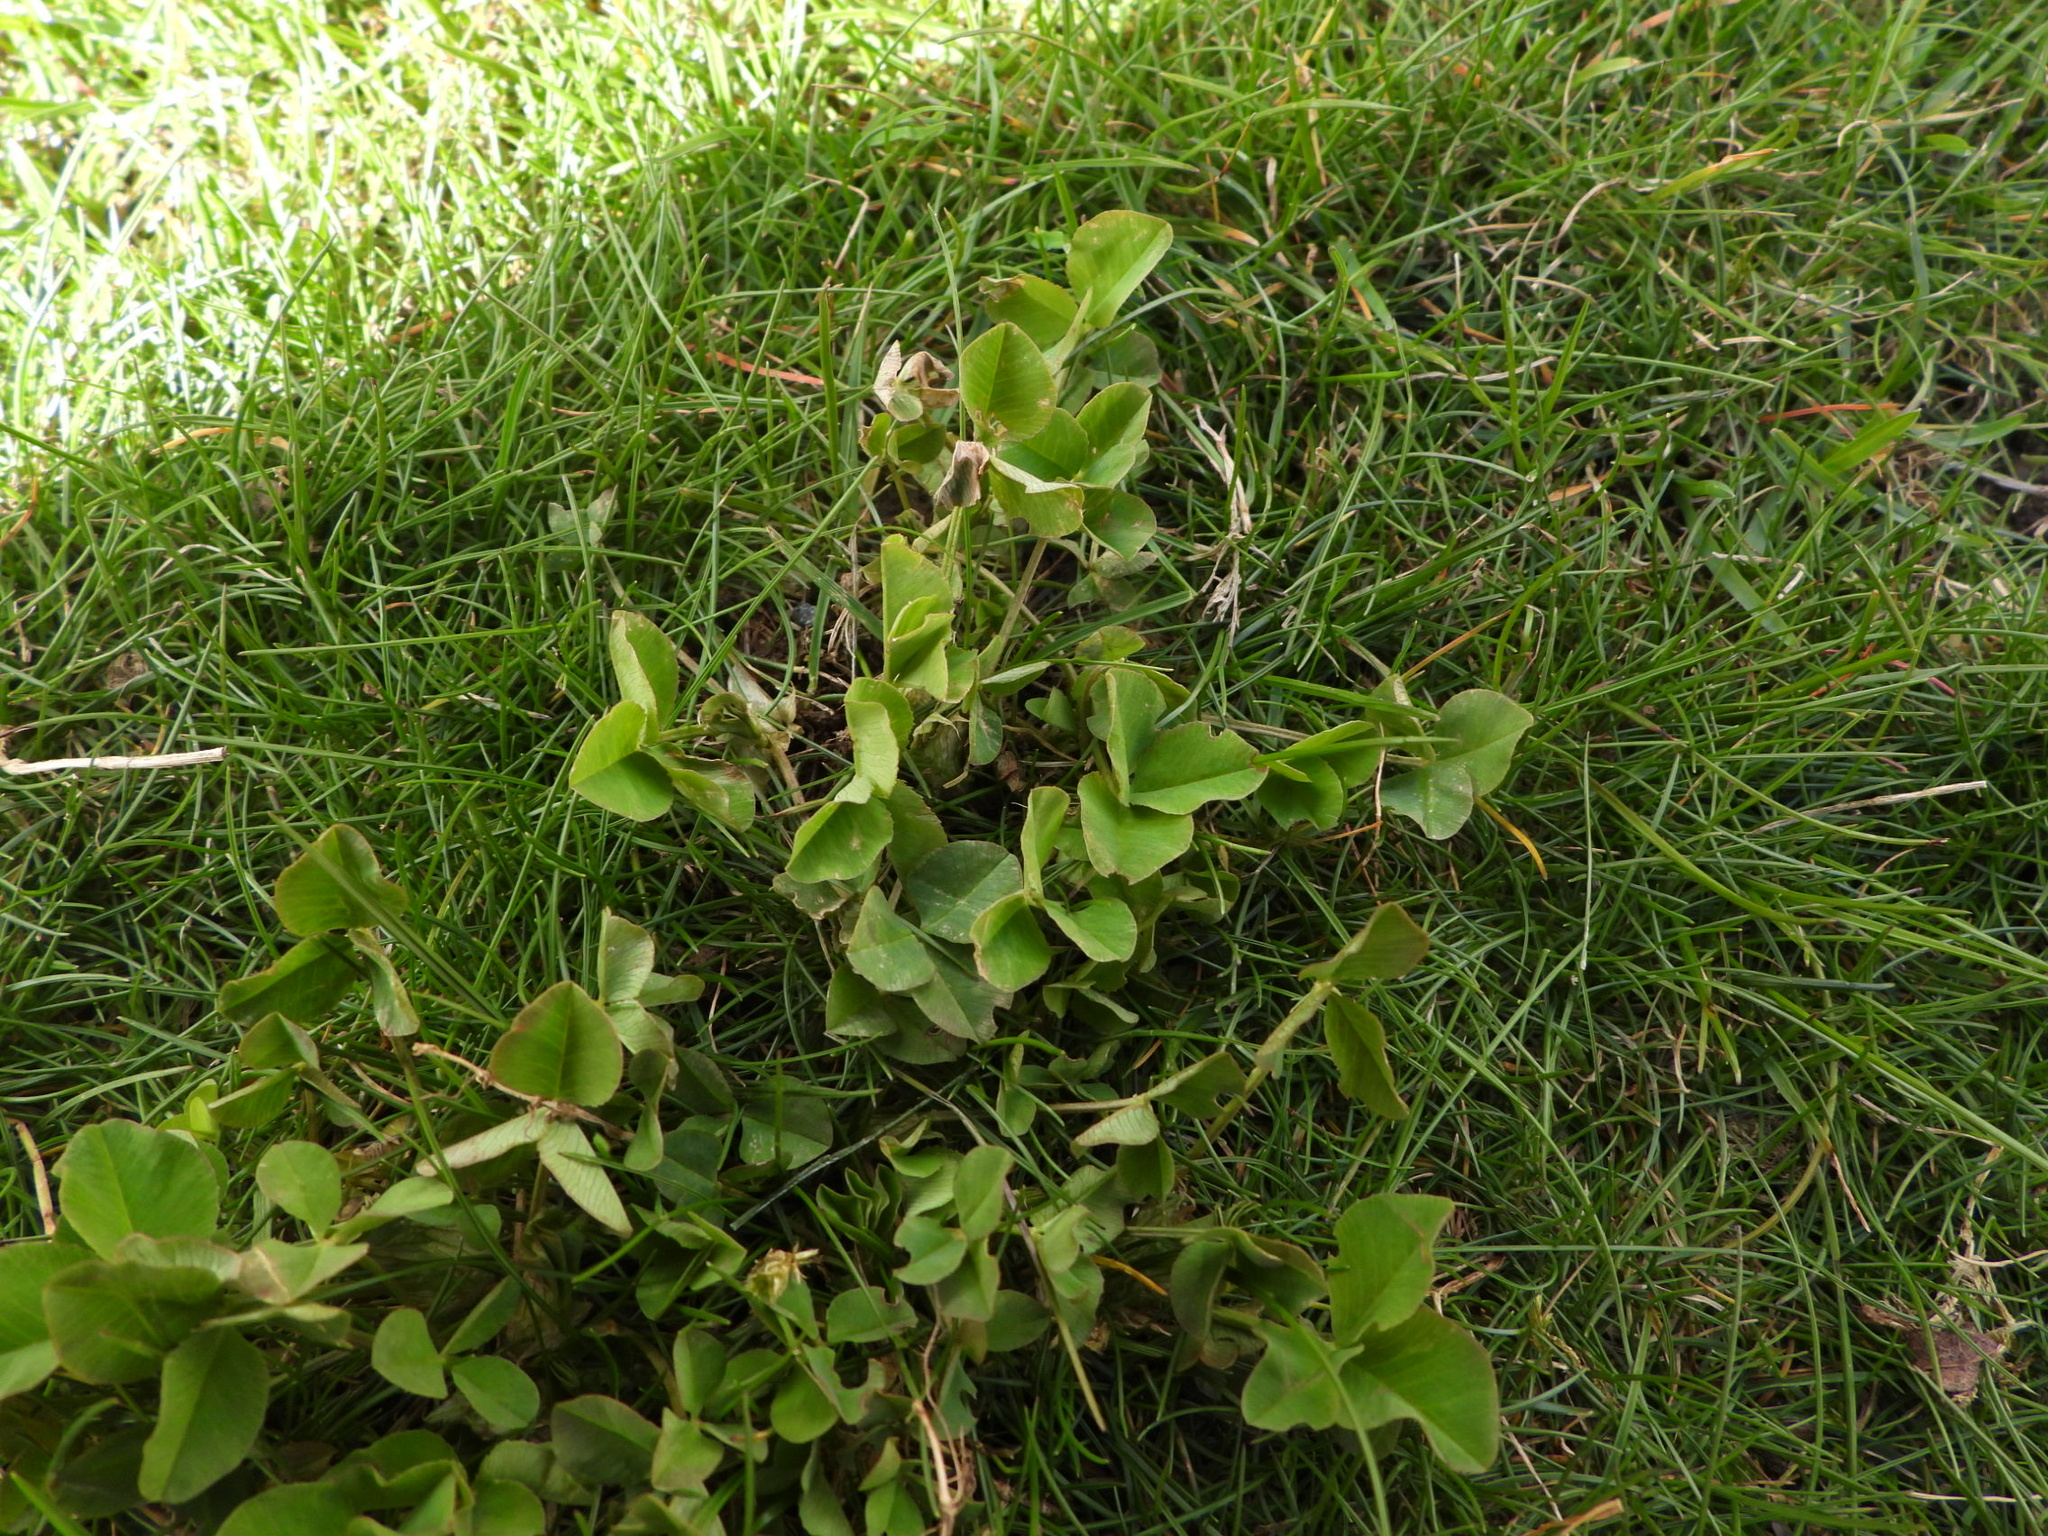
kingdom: Plantae
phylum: Tracheophyta
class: Magnoliopsida
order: Fabales
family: Fabaceae
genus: Trifolium
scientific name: Trifolium hybridum
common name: Alsike clover
